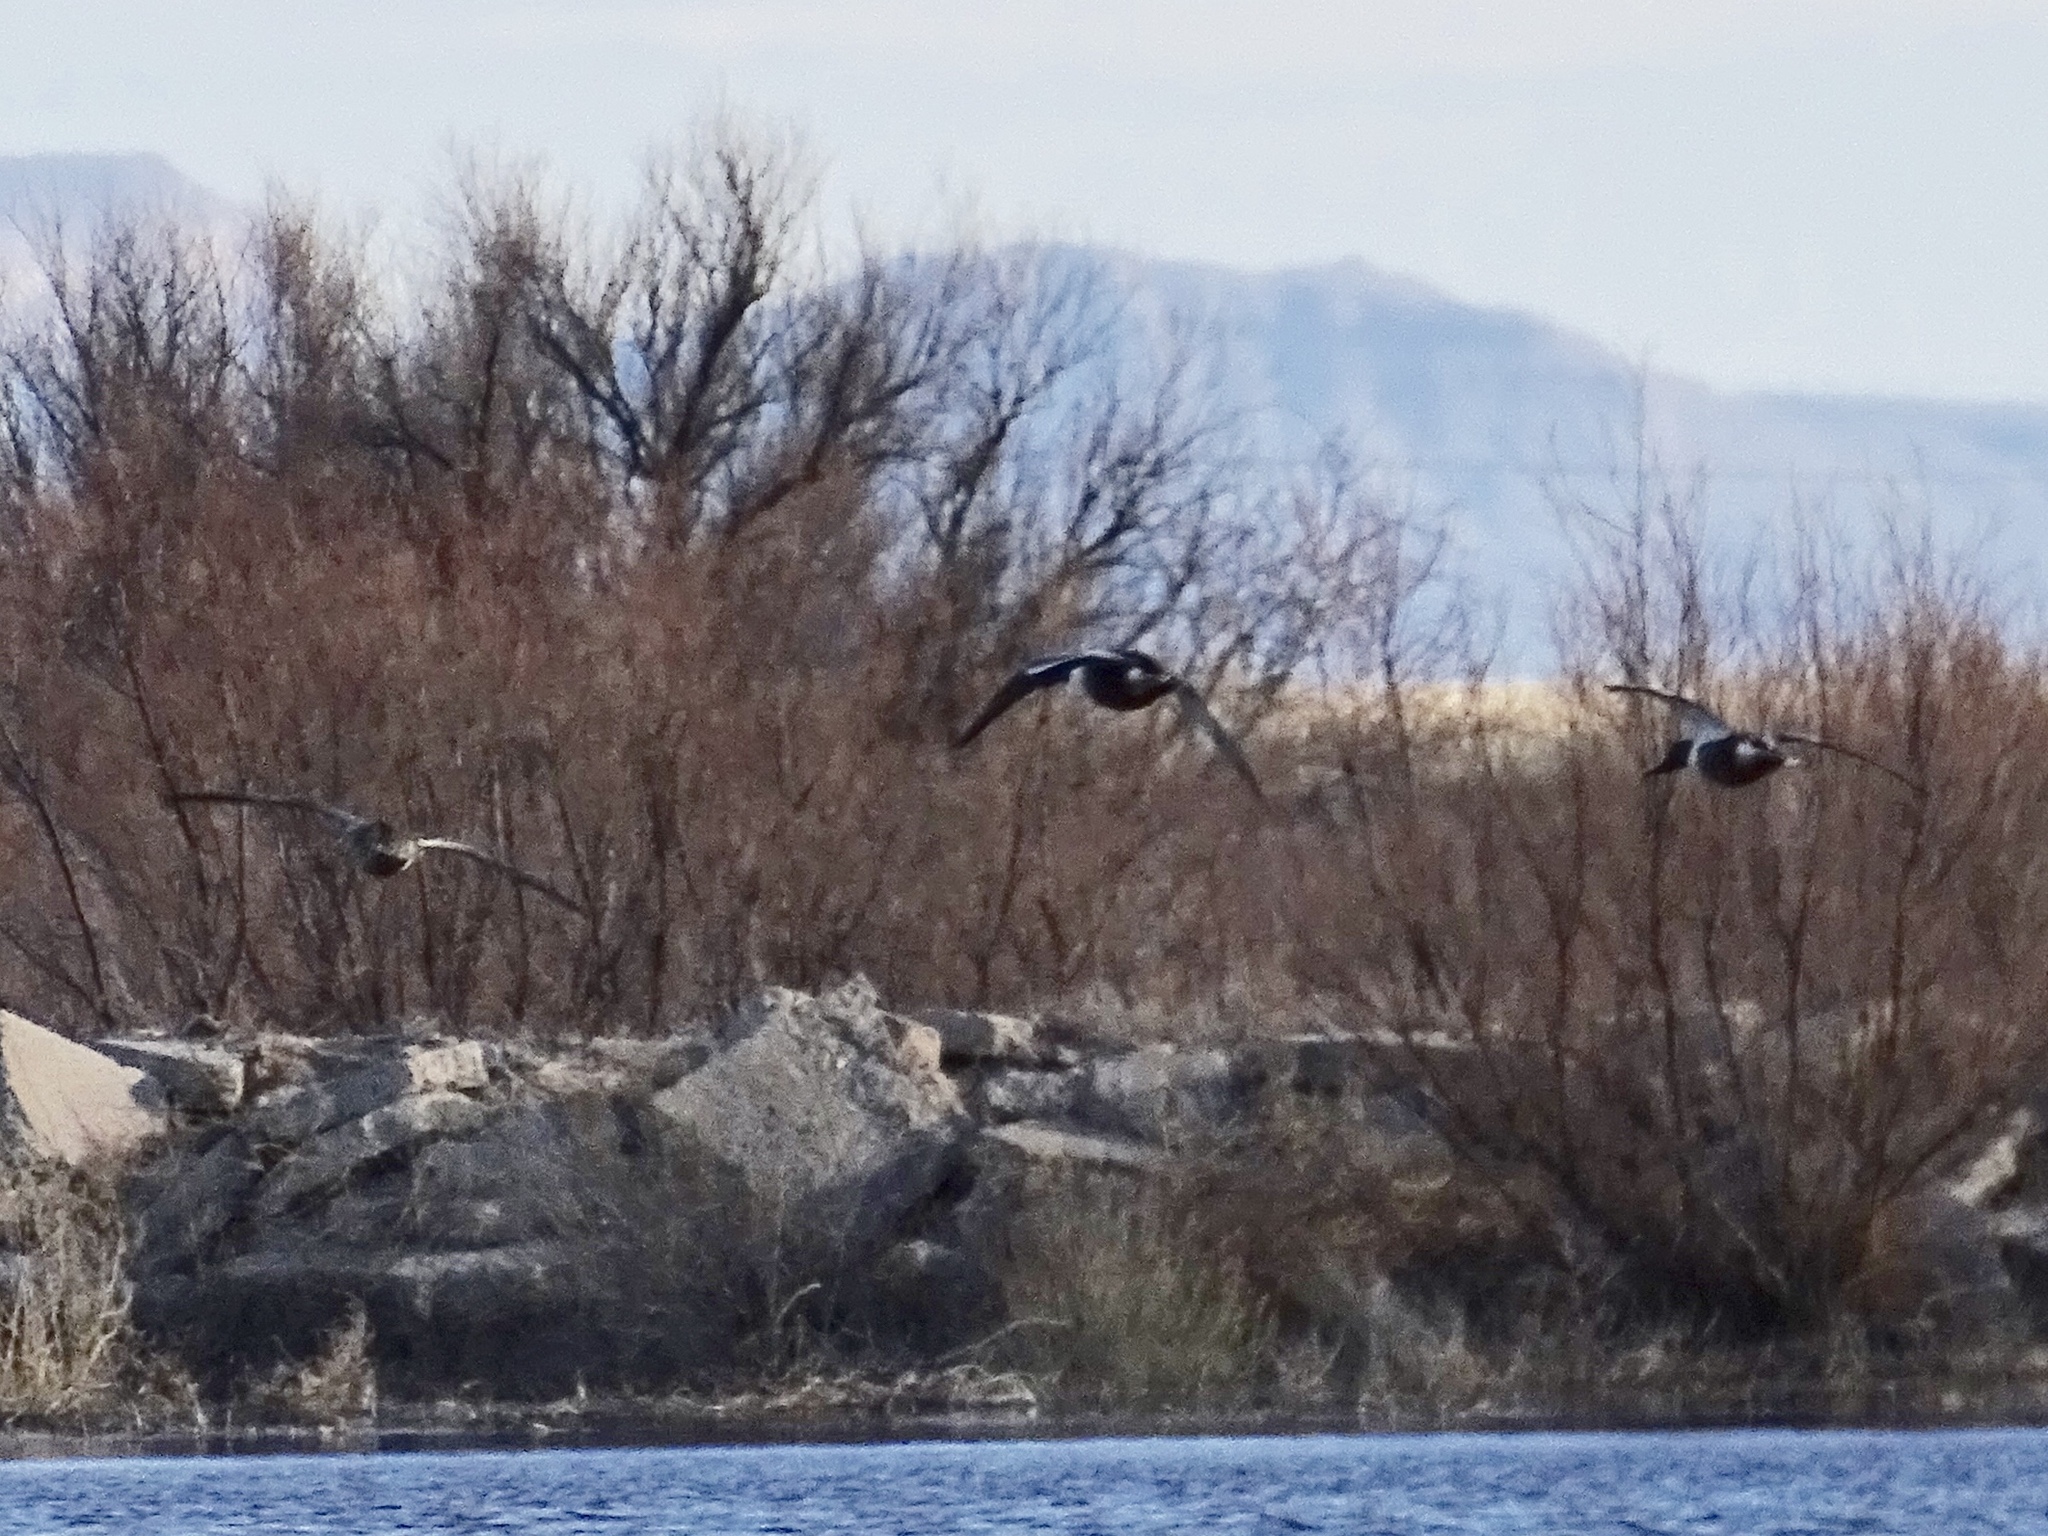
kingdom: Animalia
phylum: Chordata
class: Aves
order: Anseriformes
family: Anatidae
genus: Spatula
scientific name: Spatula clypeata
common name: Northern shoveler
